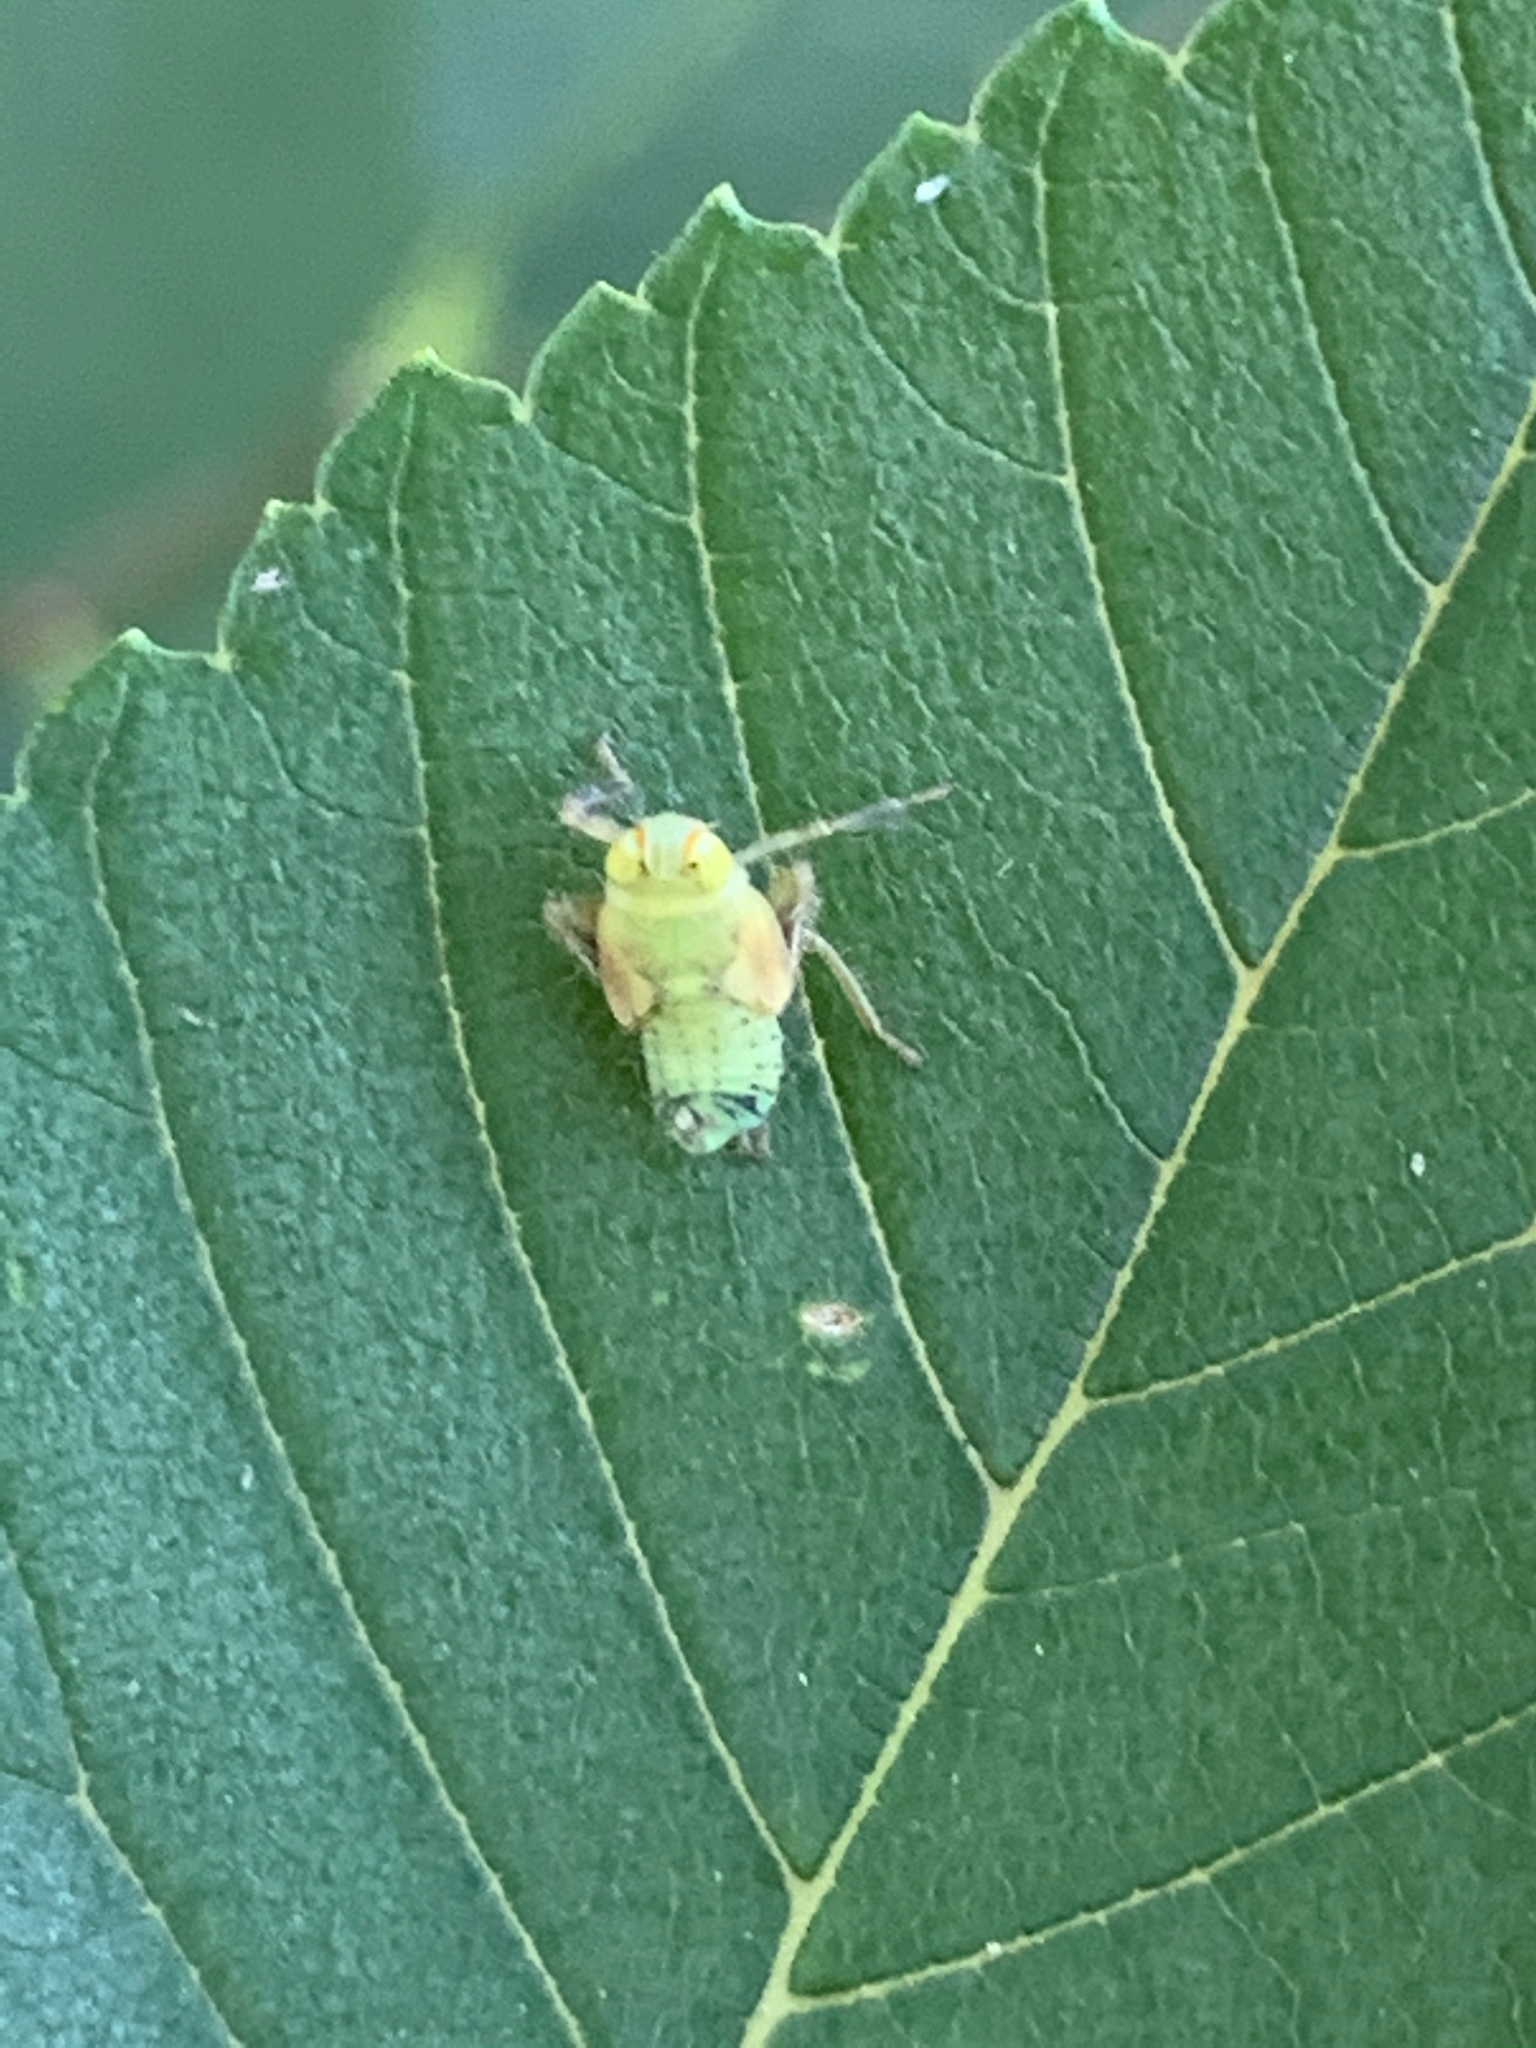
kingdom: Animalia
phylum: Arthropoda
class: Insecta
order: Hemiptera
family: Cicadellidae
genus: Jikradia
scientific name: Jikradia olitoria
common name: Coppery leafhopper
